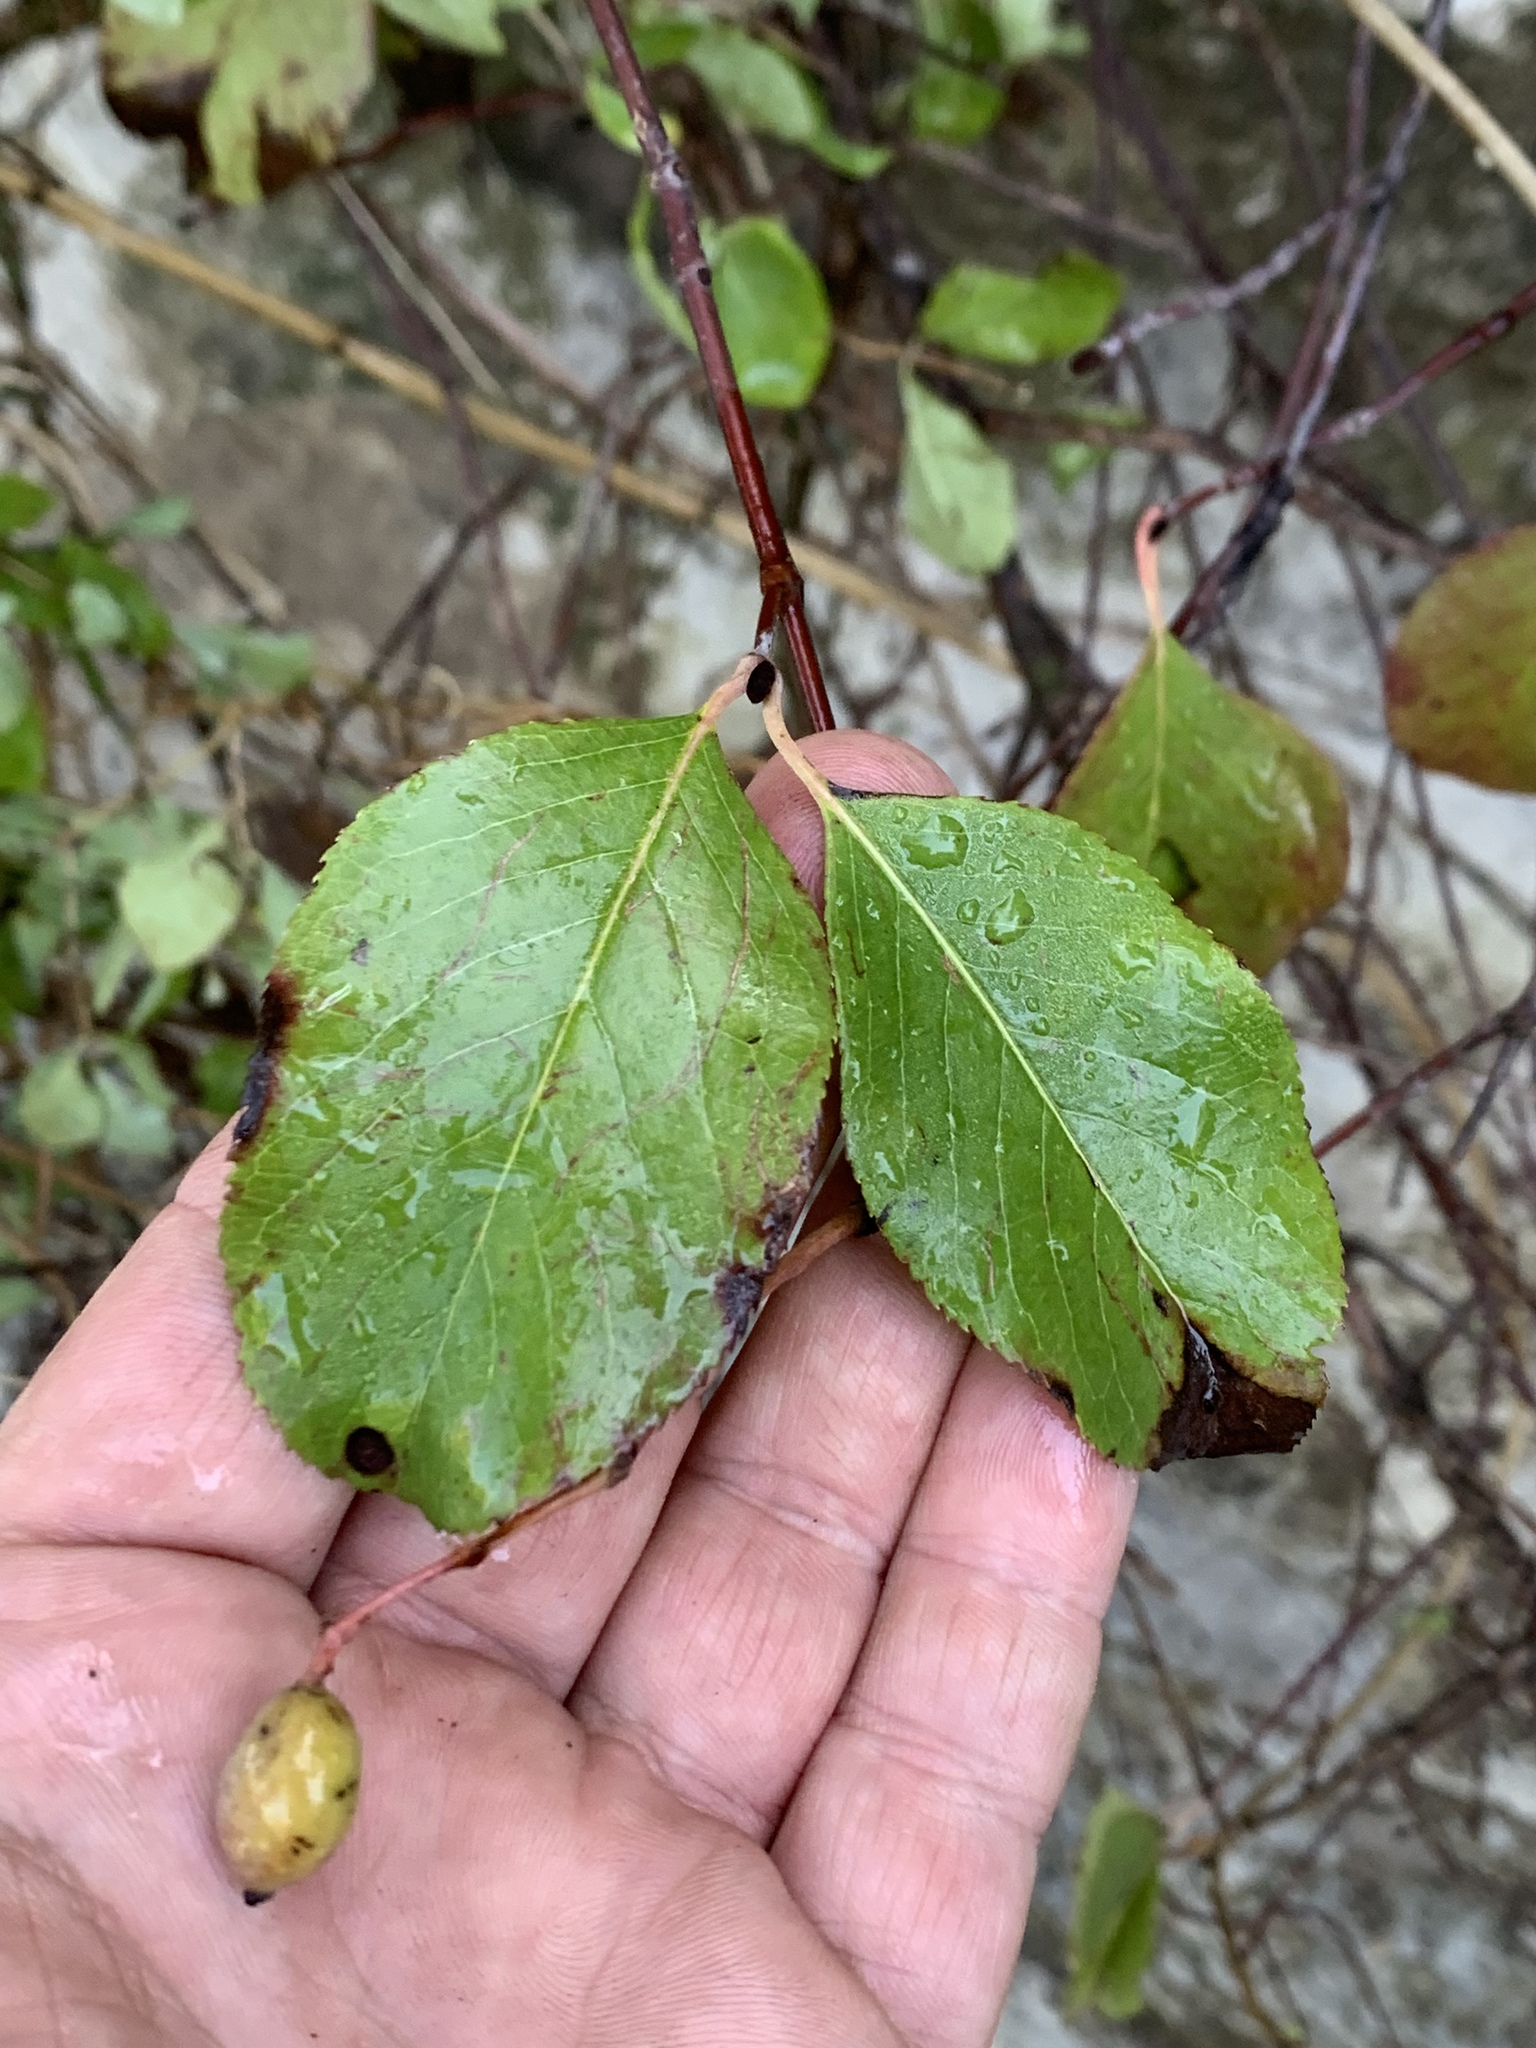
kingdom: Plantae
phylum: Tracheophyta
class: Magnoliopsida
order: Dipsacales
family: Viburnaceae
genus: Viburnum
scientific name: Viburnum rufidulum
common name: Blue haw
